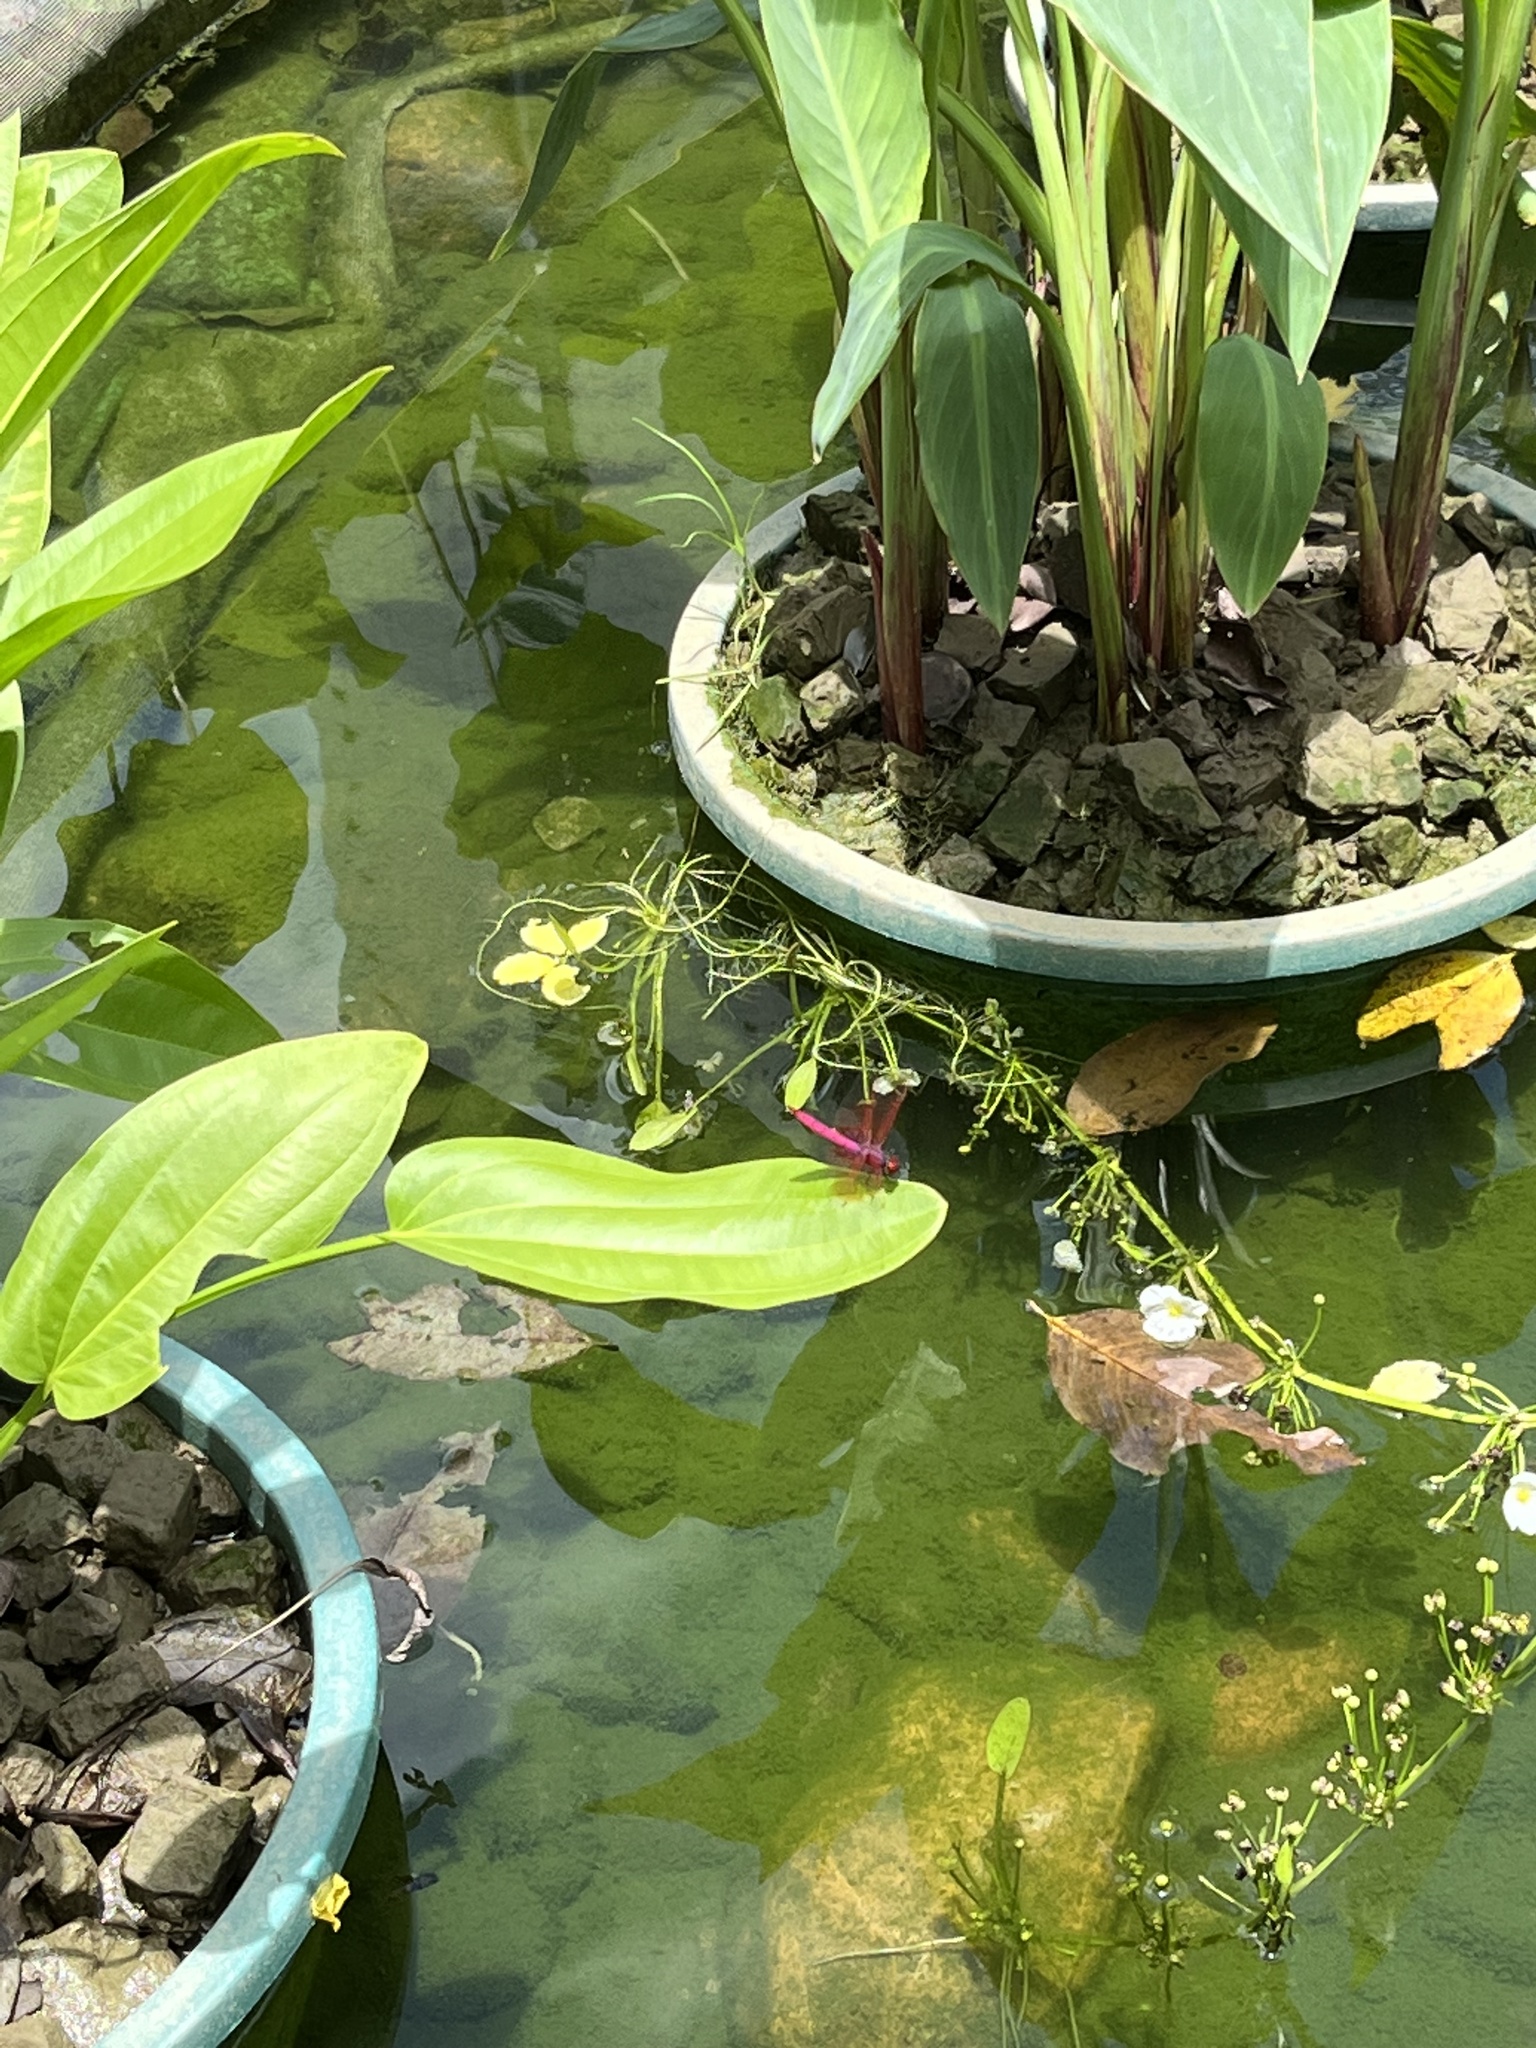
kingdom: Animalia
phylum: Arthropoda
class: Insecta
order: Odonata
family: Libellulidae
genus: Trithemis
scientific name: Trithemis aurora
